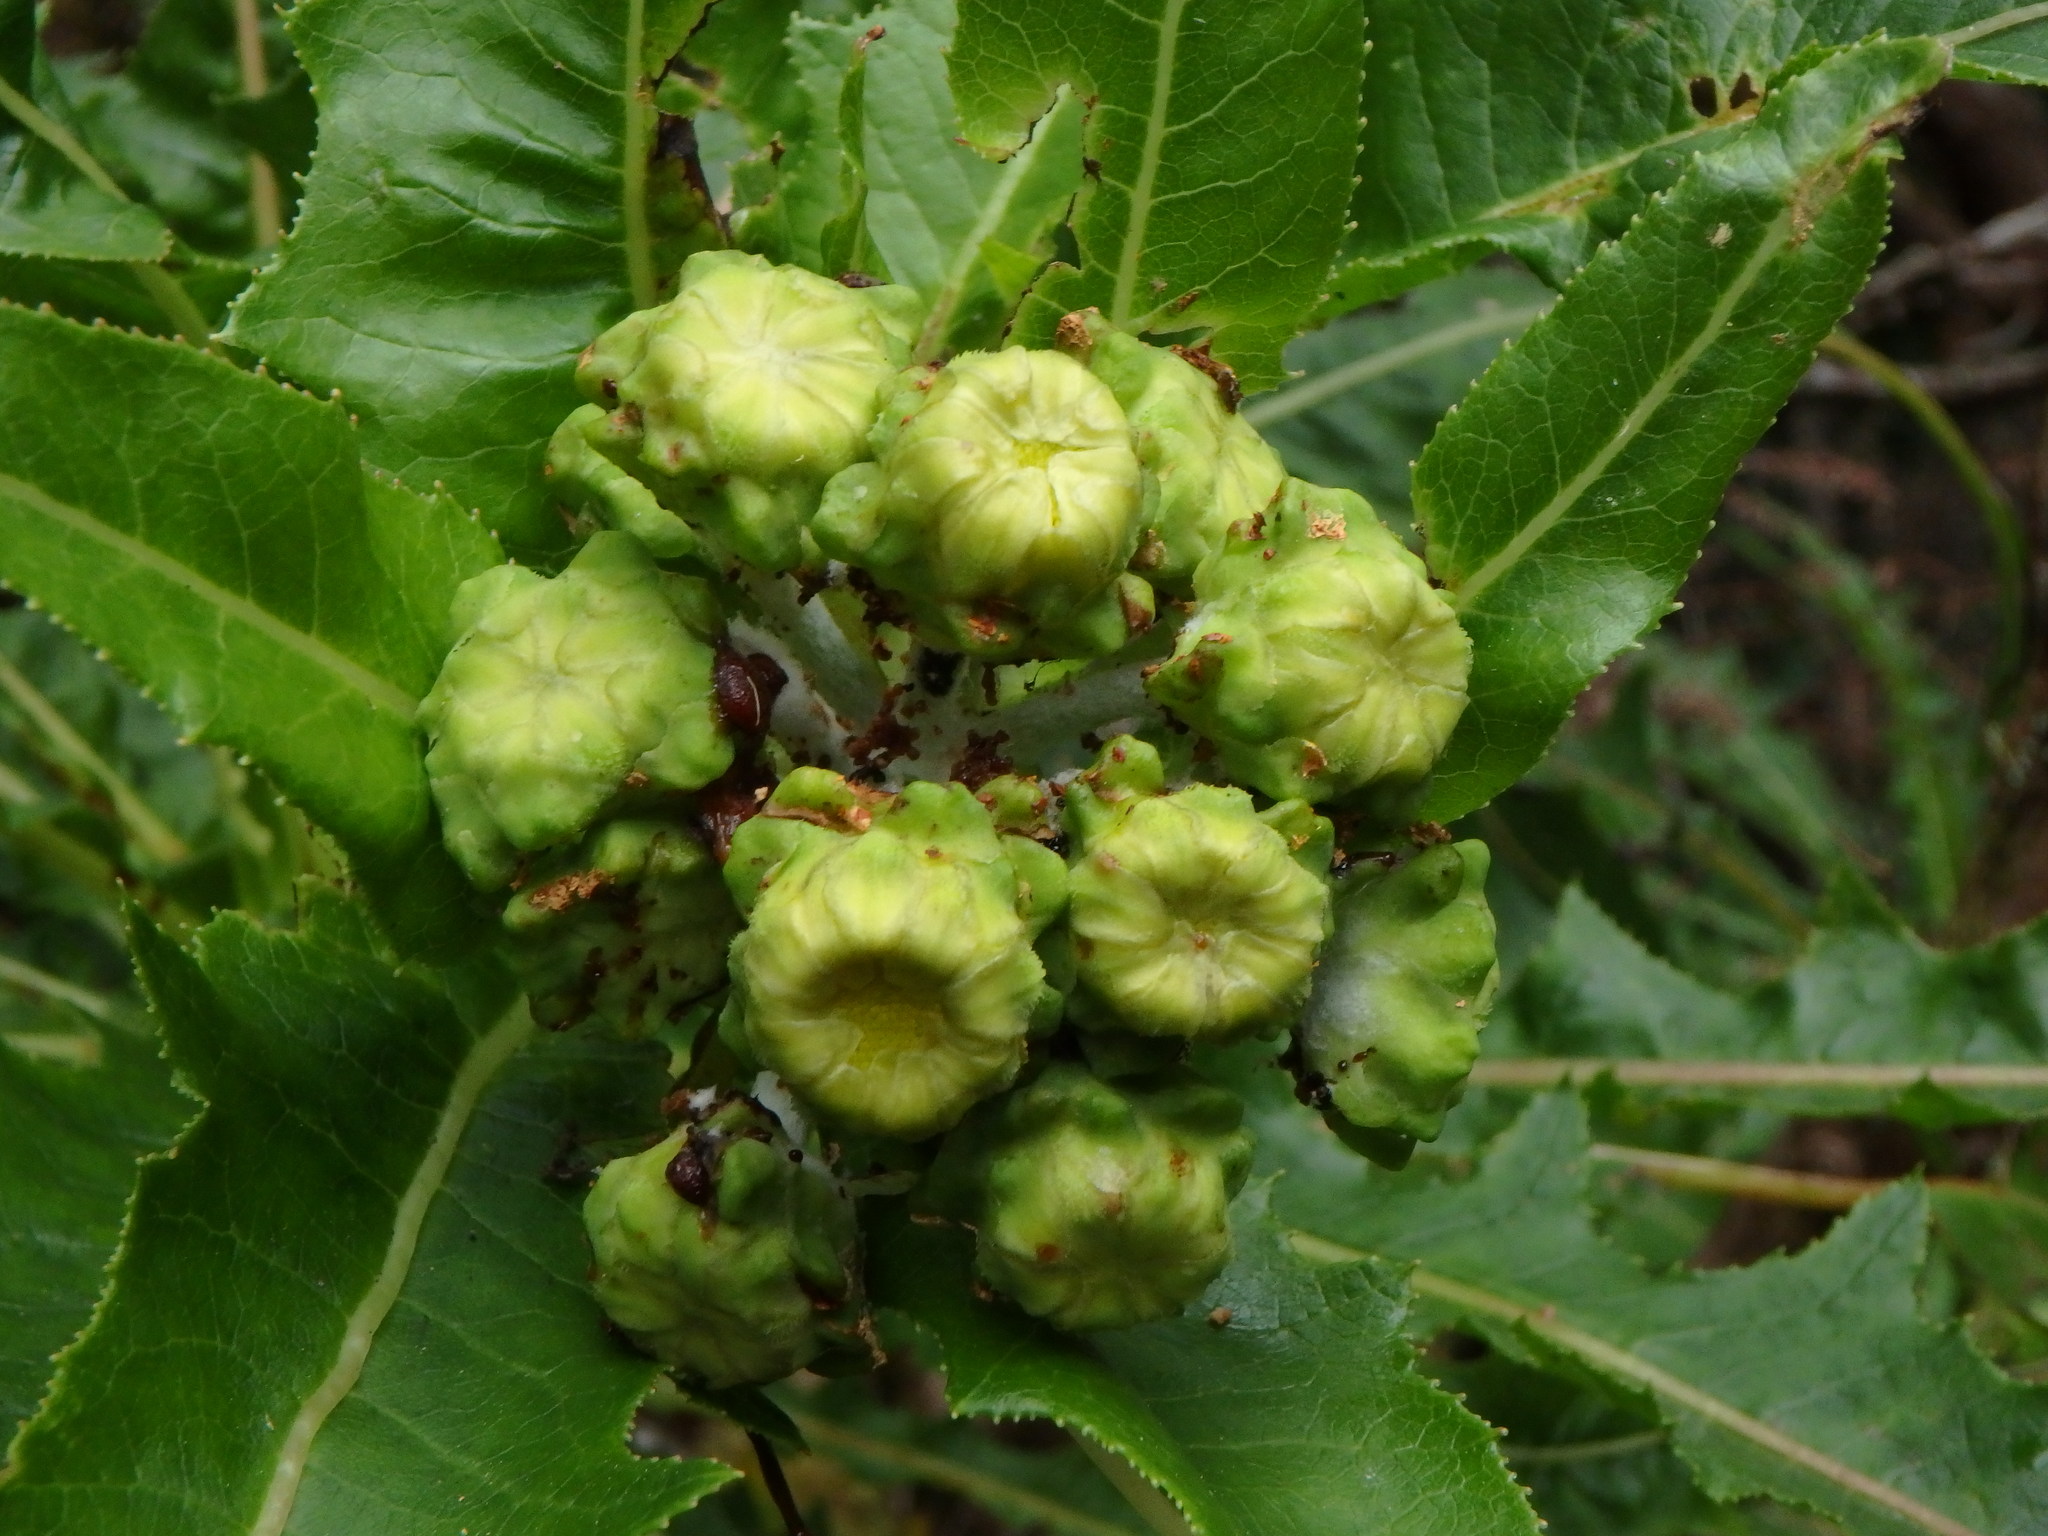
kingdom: Plantae
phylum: Tracheophyta
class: Magnoliopsida
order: Asterales
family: Asteraceae
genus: Sonchus
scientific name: Sonchus congestus
